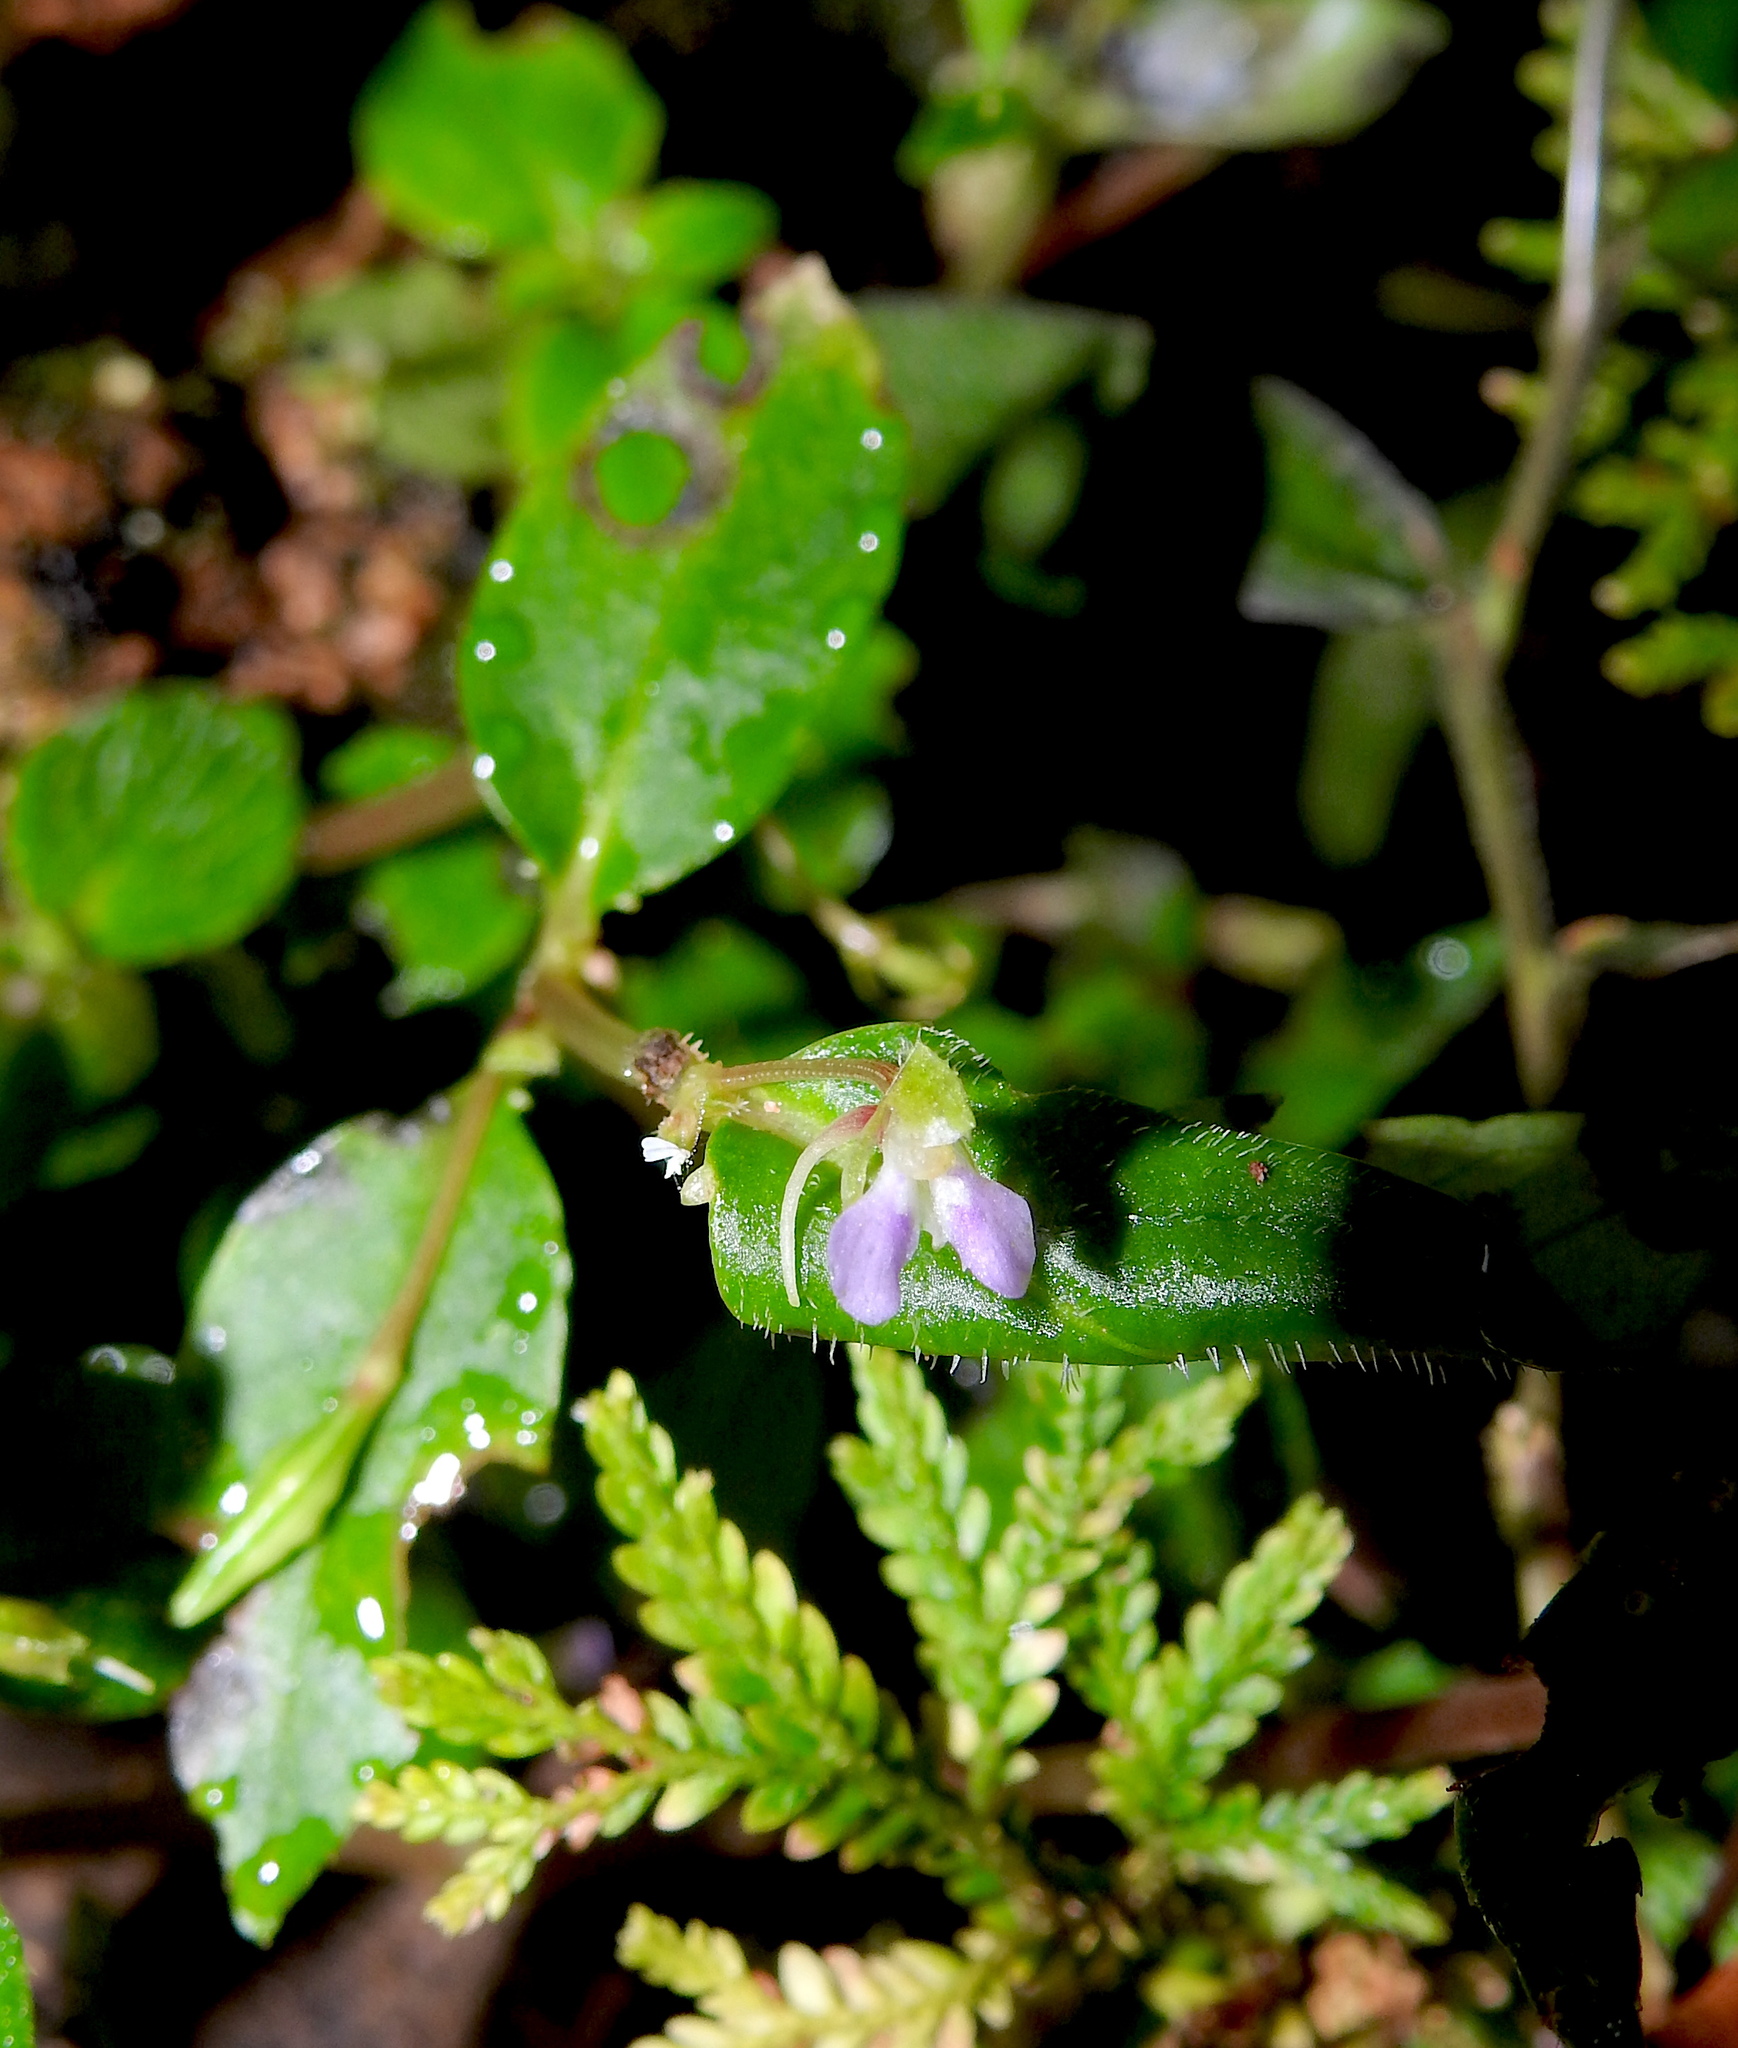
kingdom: Plantae
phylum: Tracheophyta
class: Magnoliopsida
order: Ericales
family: Balsaminaceae
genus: Impatiens
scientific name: Impatiens minor
